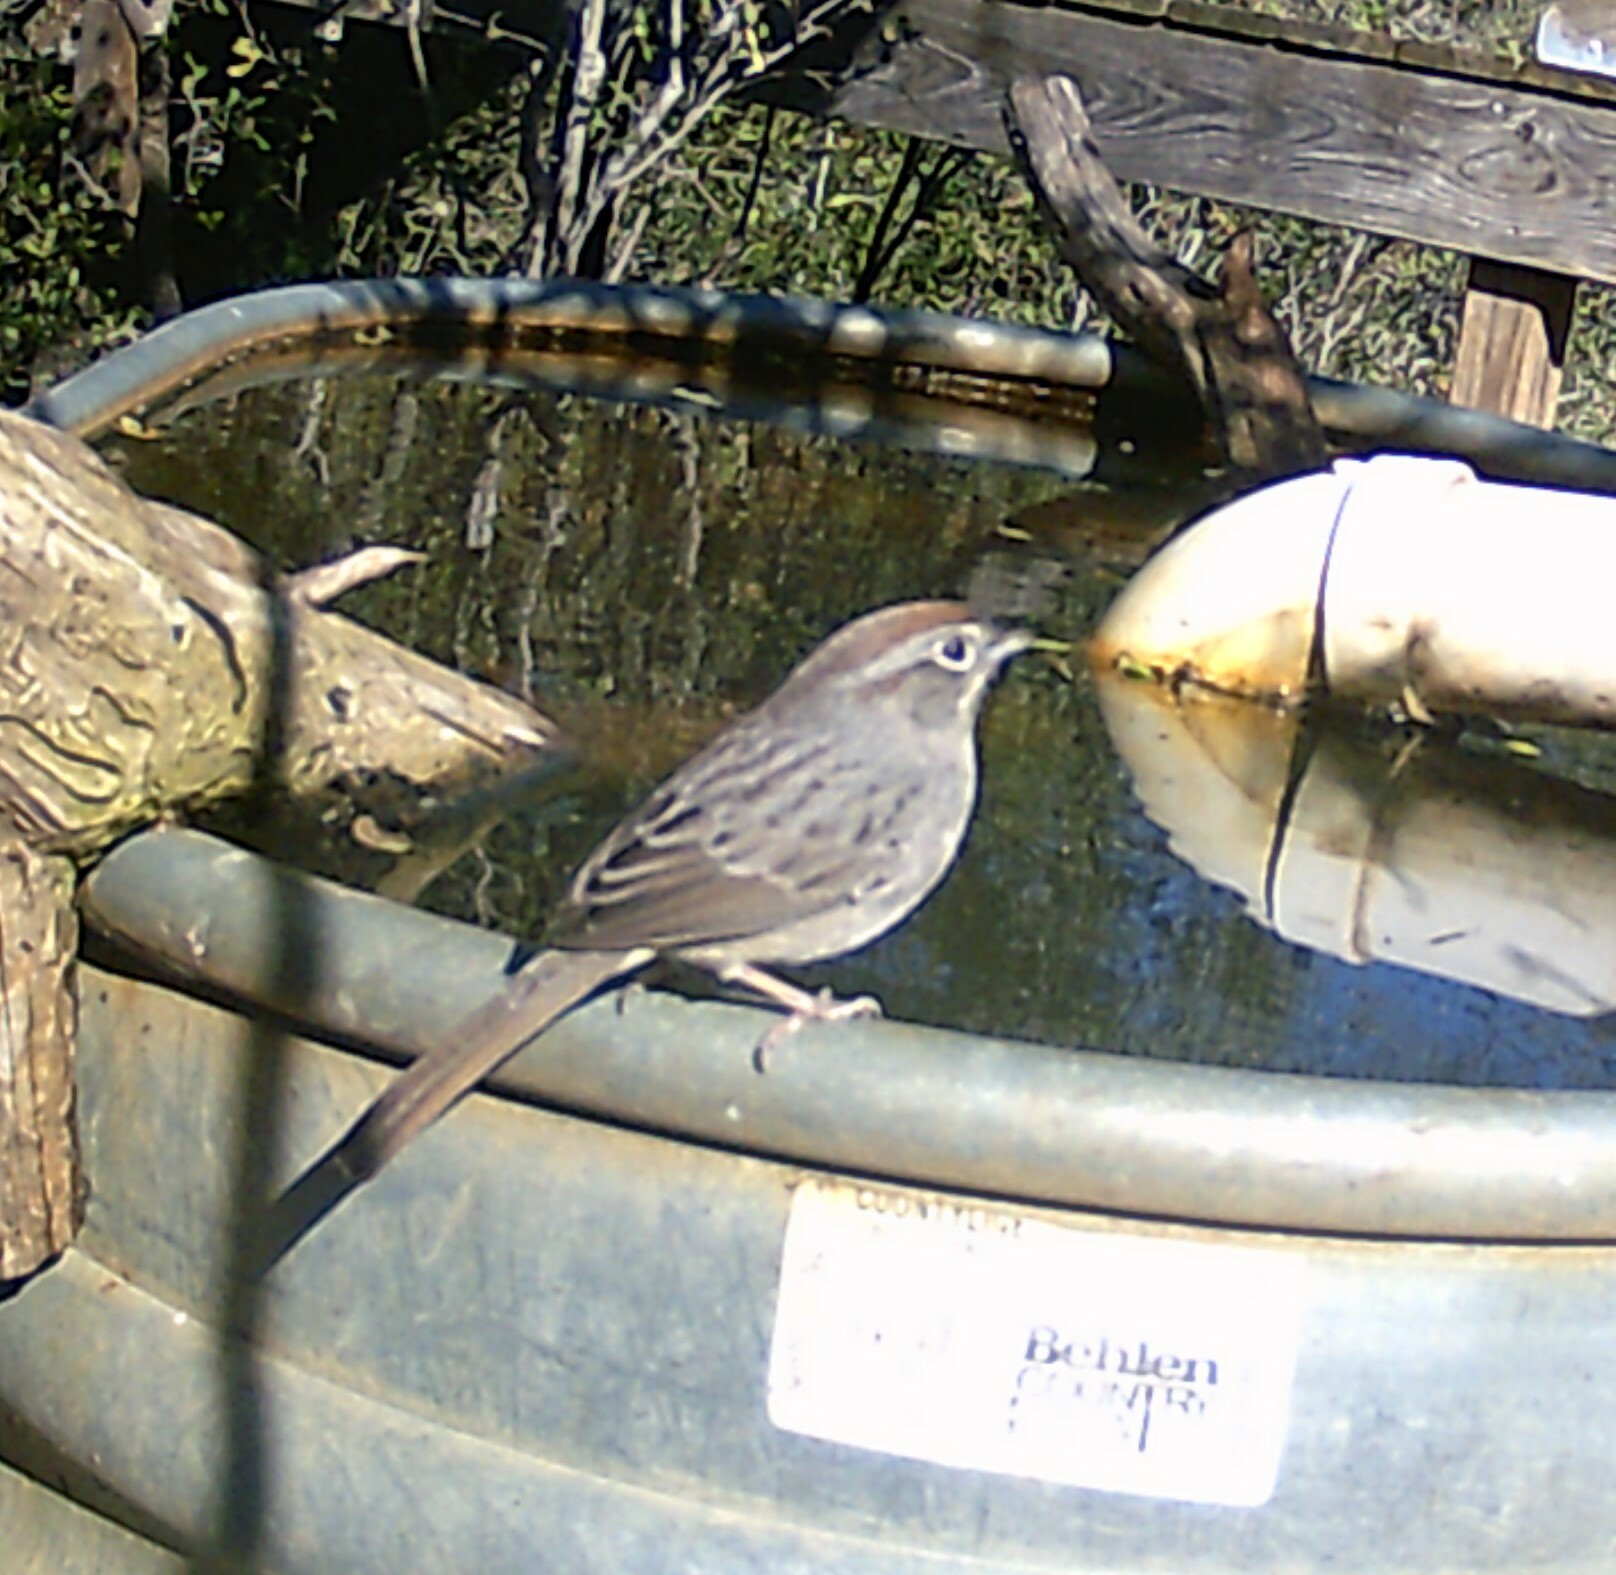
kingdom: Animalia
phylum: Chordata
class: Aves
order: Passeriformes
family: Passerellidae
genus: Aimophila
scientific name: Aimophila ruficeps
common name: Rufous-crowned sparrow
